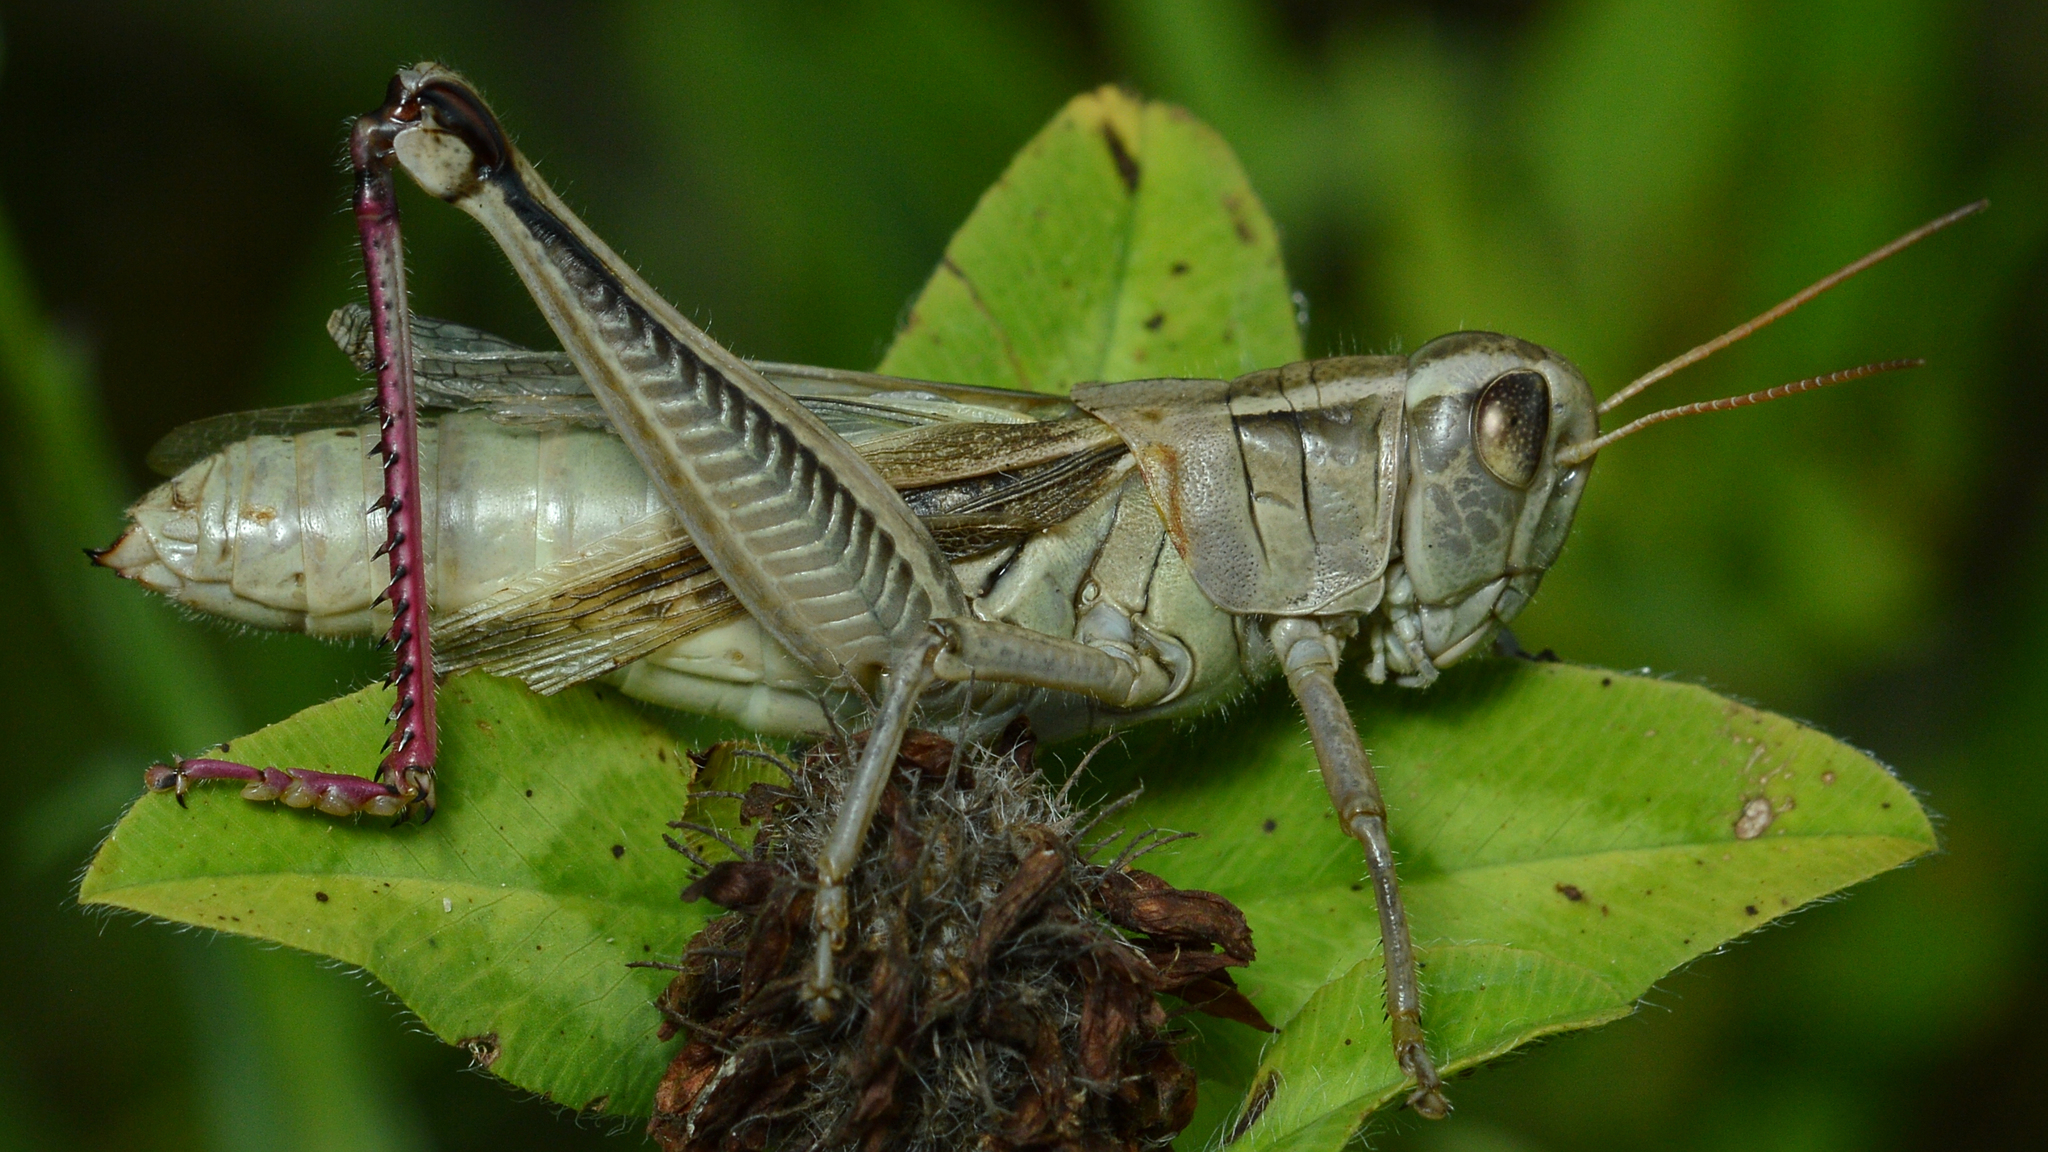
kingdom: Animalia
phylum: Arthropoda
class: Insecta
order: Orthoptera
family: Acrididae
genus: Melanoplus
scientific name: Melanoplus bivittatus
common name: Two-striped grasshopper
